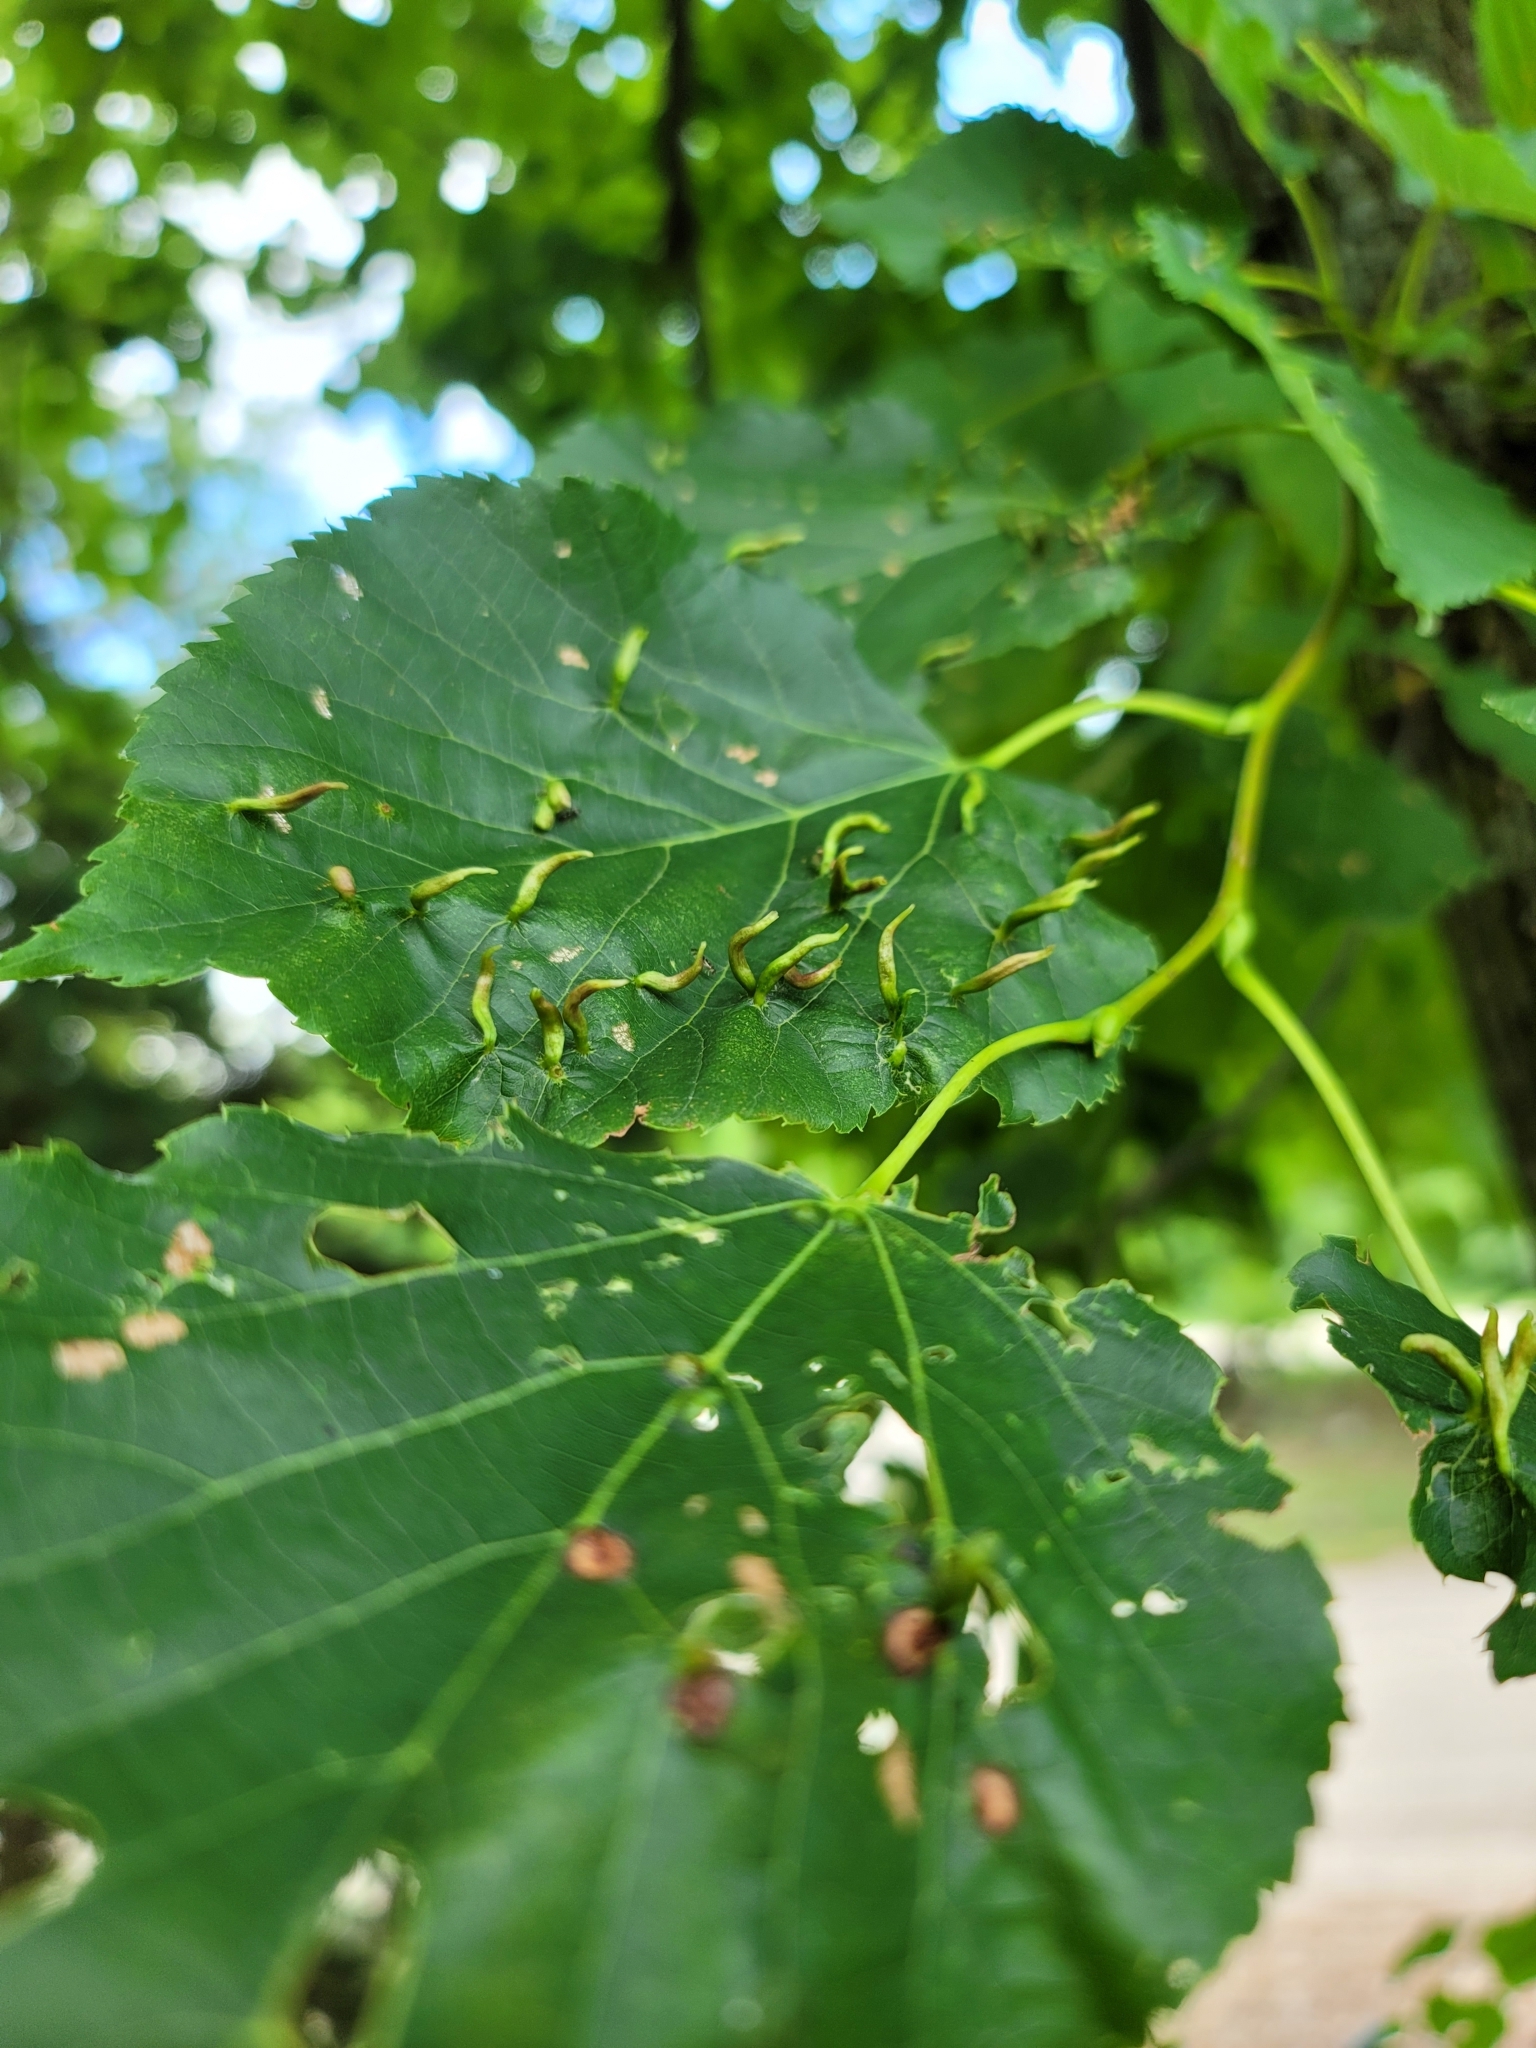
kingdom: Animalia
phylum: Arthropoda
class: Arachnida
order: Trombidiformes
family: Eriophyidae
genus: Eriophyes
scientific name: Eriophyes tiliae
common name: Red nail gall mite
